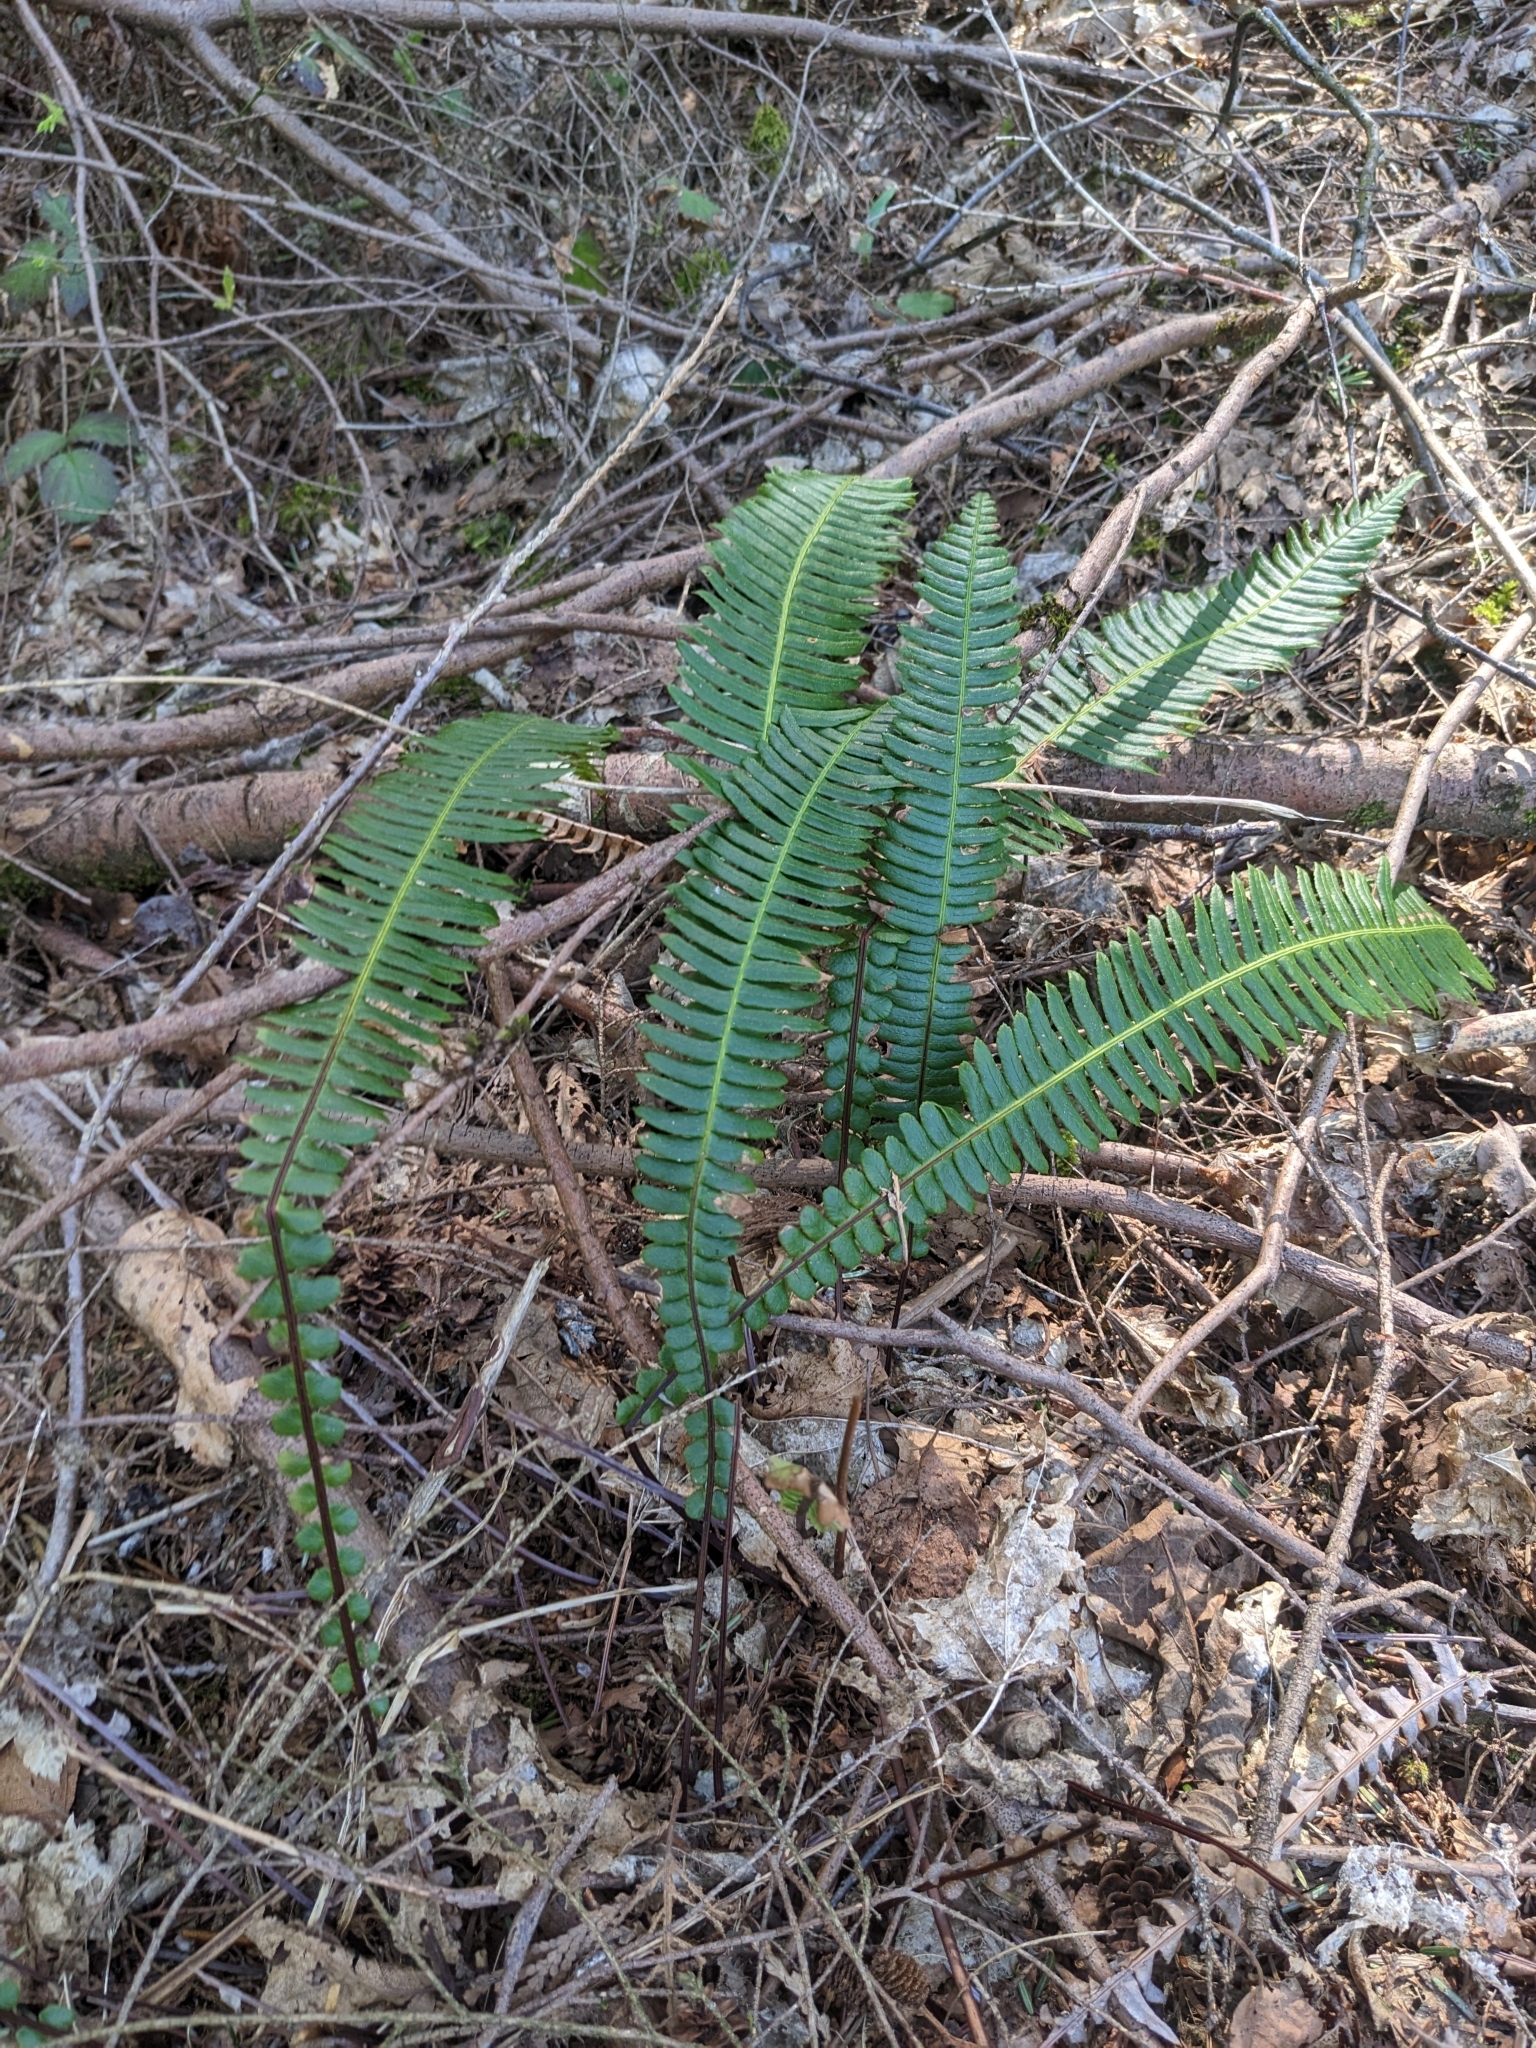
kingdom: Plantae
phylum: Tracheophyta
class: Polypodiopsida
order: Polypodiales
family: Blechnaceae
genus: Struthiopteris
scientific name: Struthiopteris spicant
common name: Deer fern
